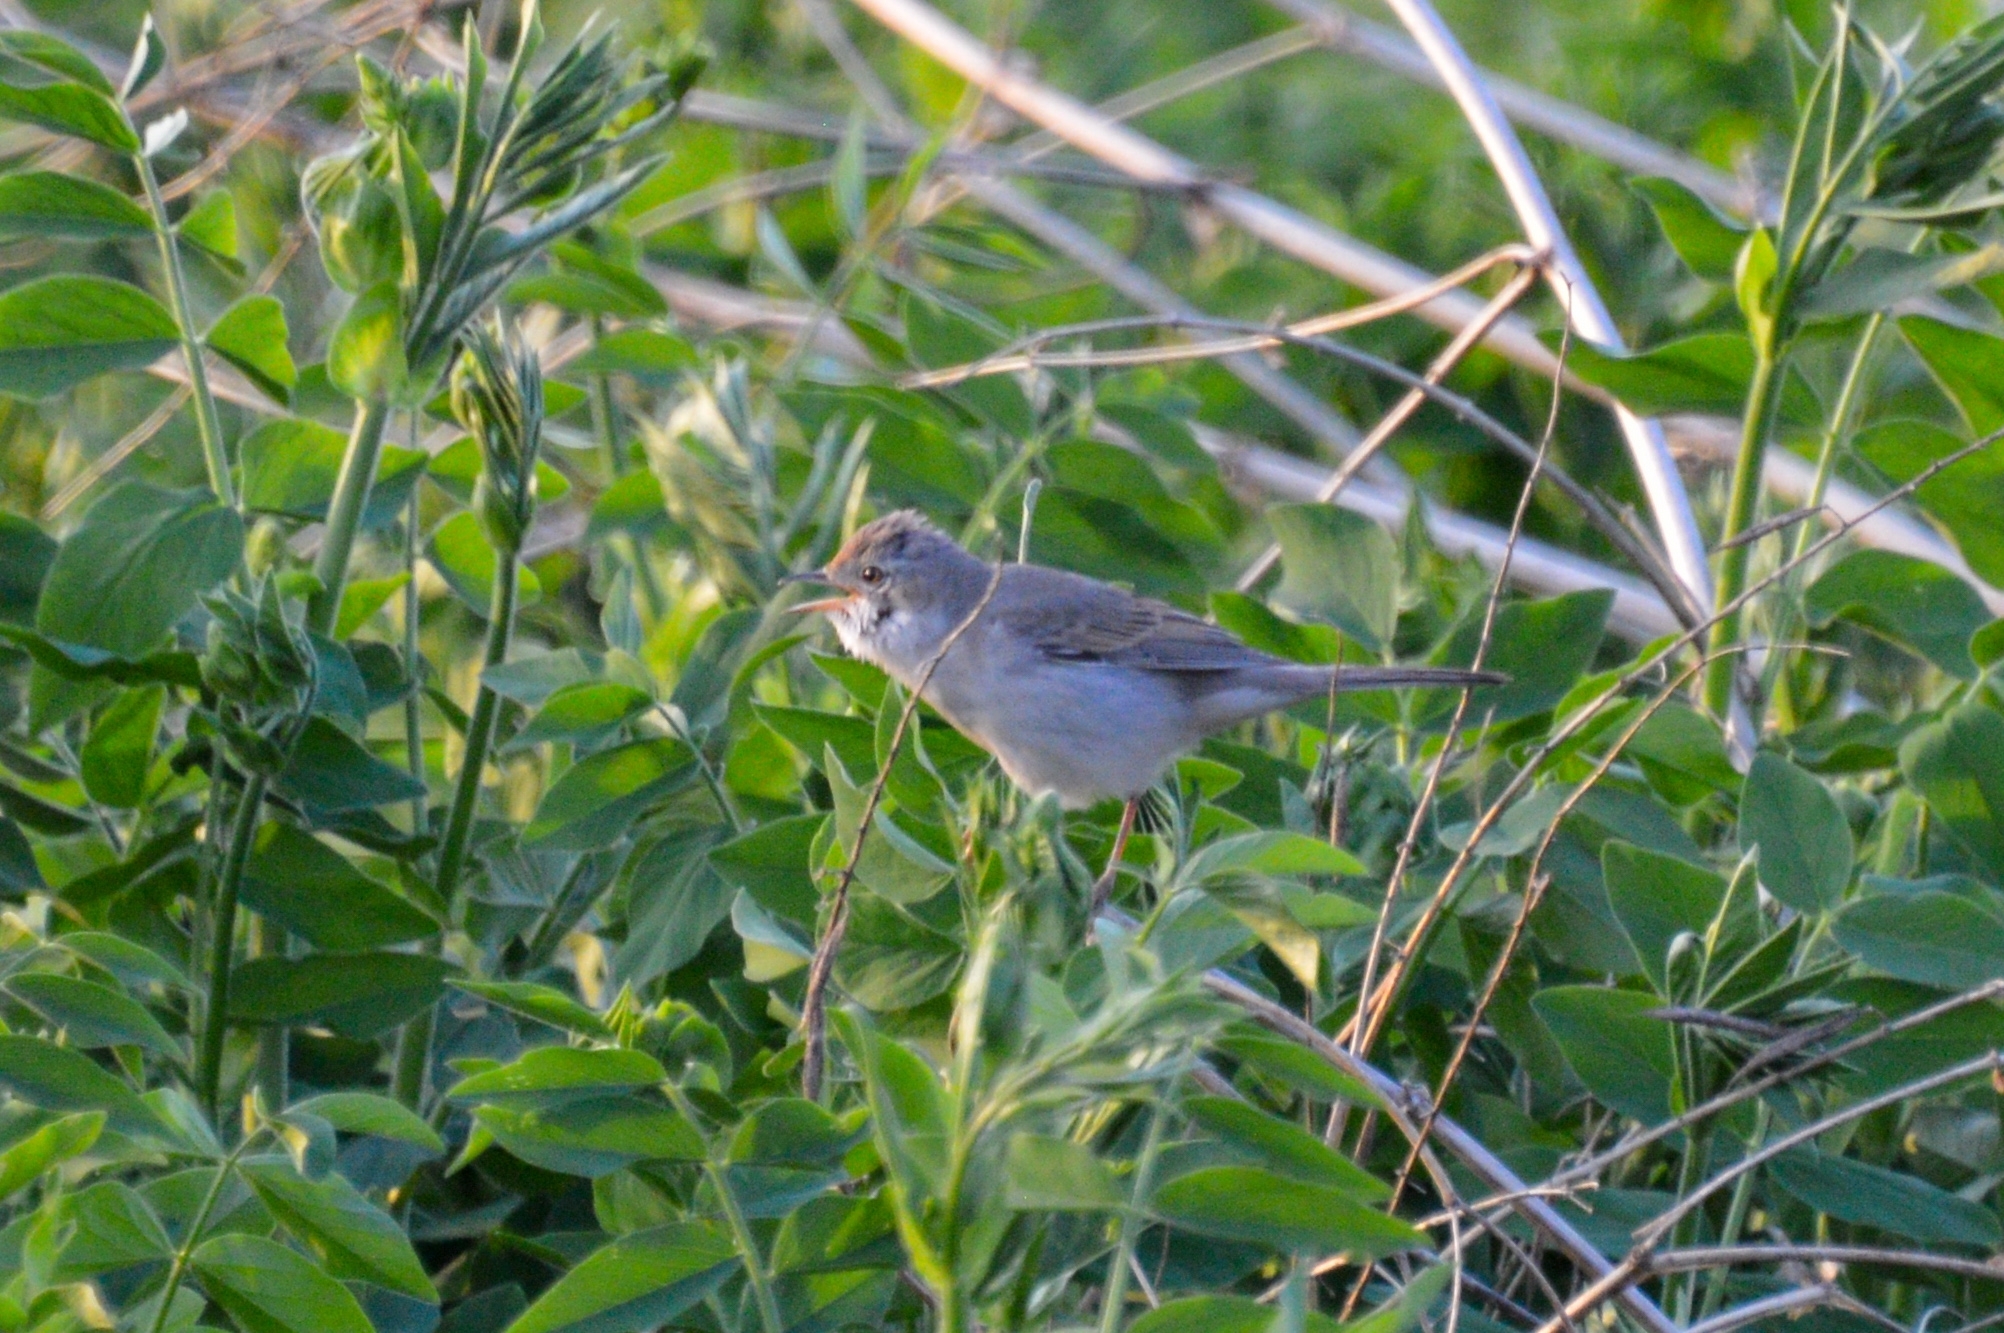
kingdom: Animalia
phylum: Chordata
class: Aves
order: Passeriformes
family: Sylviidae
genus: Sylvia
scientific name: Sylvia communis
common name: Common whitethroat
